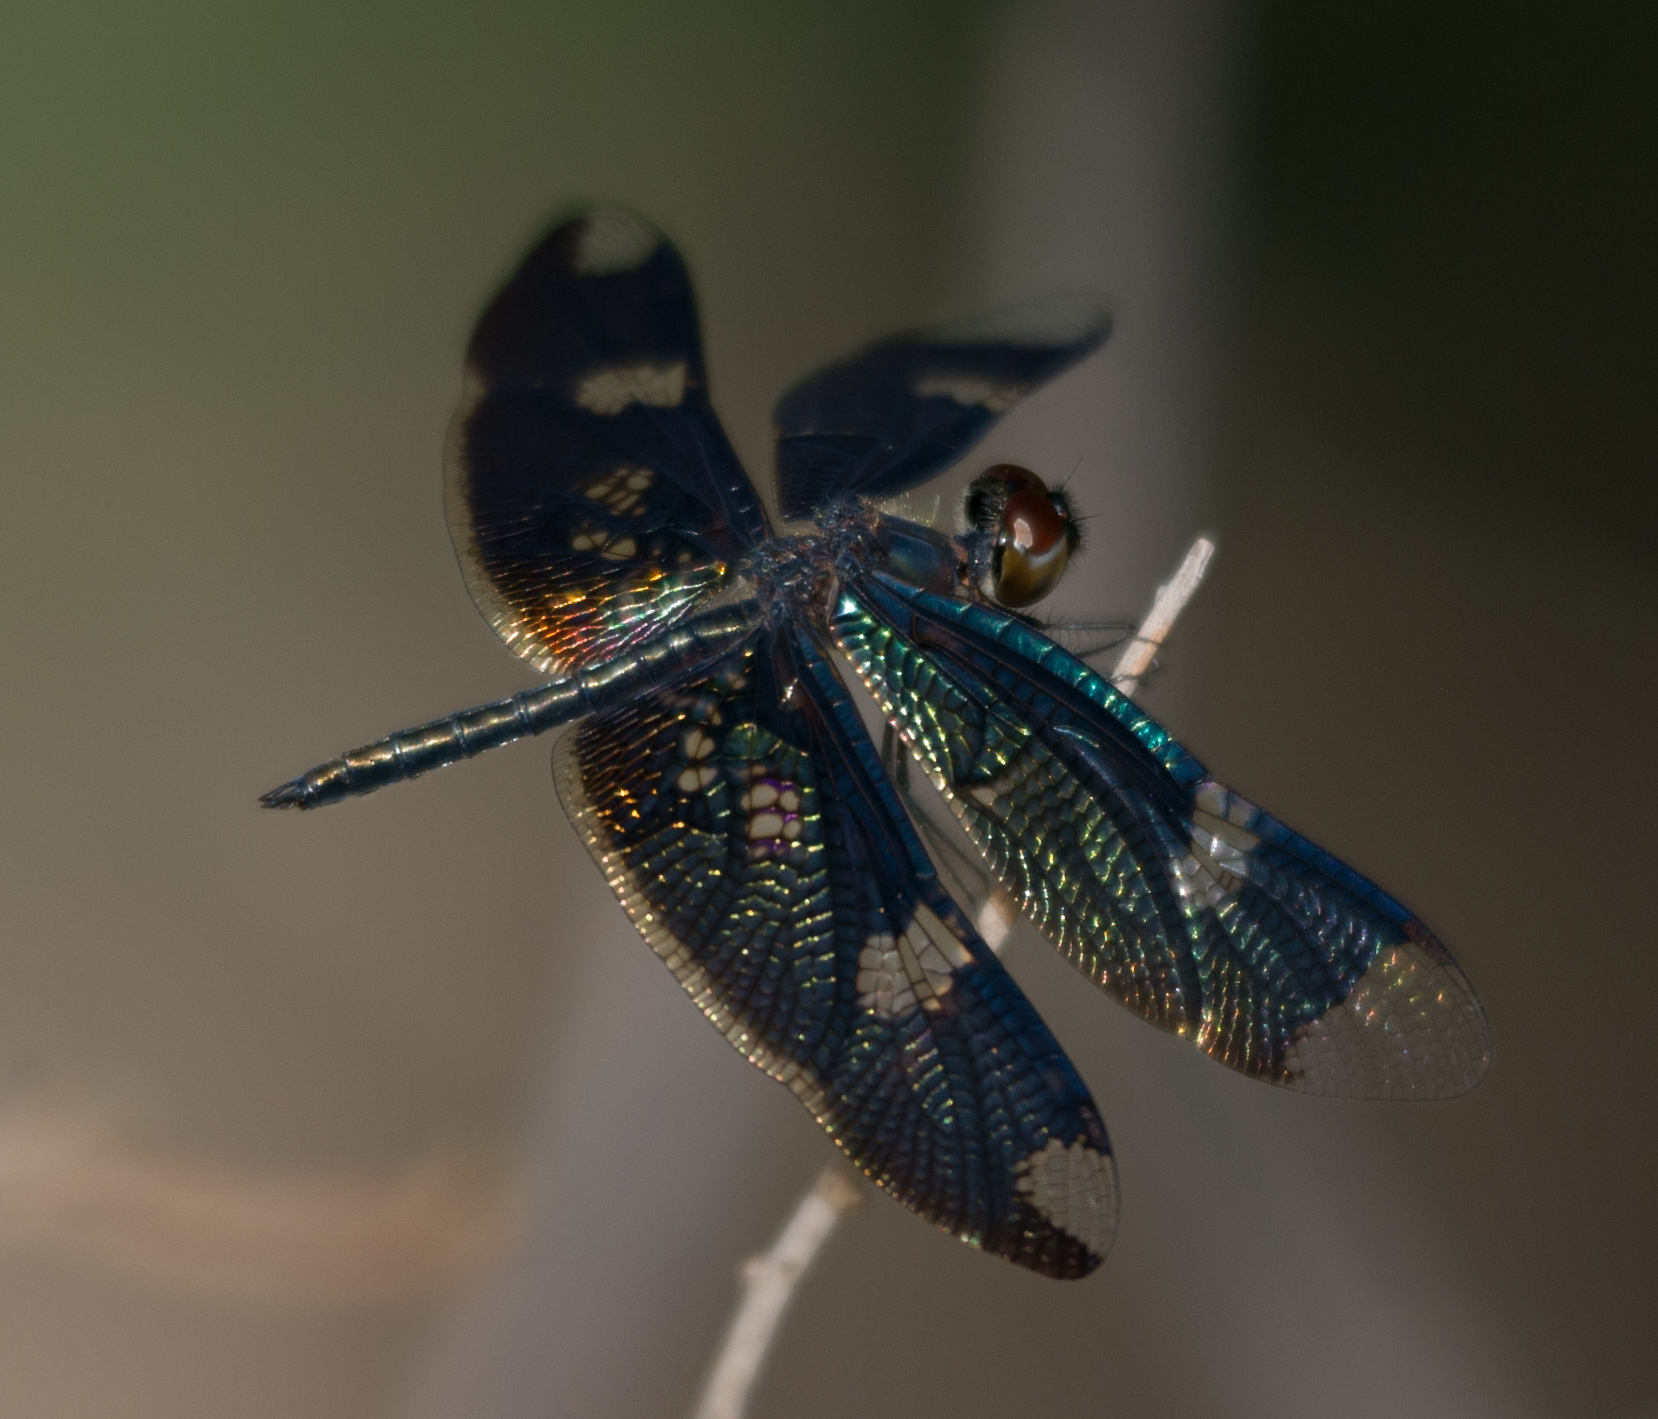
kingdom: Animalia
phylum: Arthropoda
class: Insecta
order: Odonata
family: Libellulidae
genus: Rhyothemis
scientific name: Rhyothemis fenestrina
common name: Skylight flutterer
